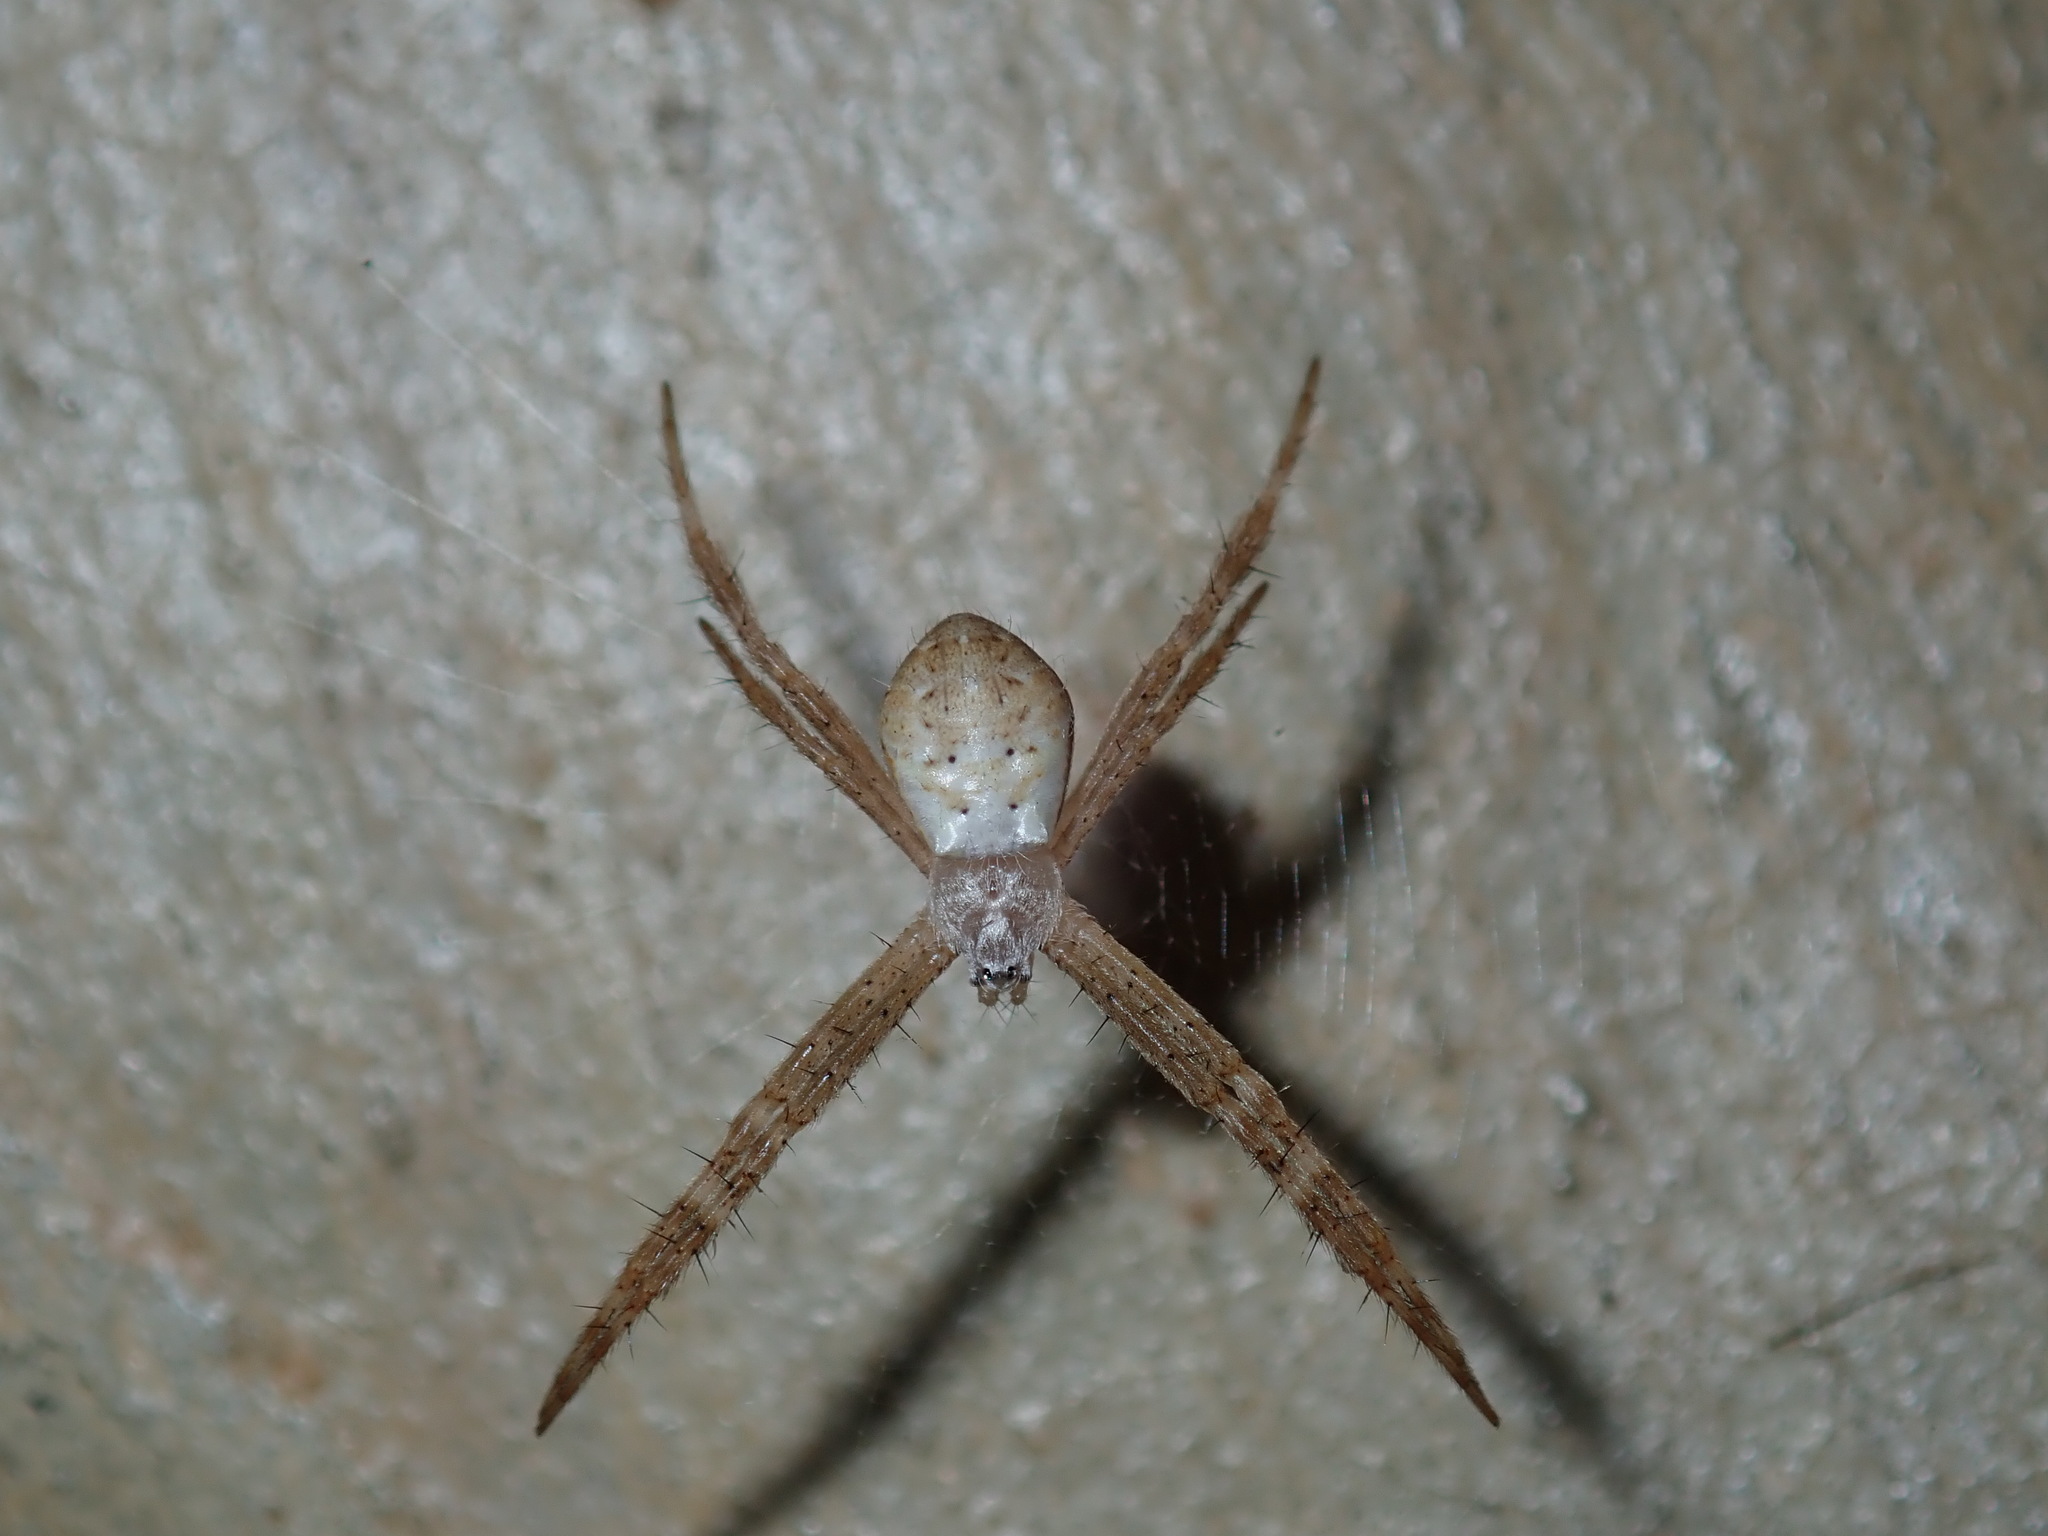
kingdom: Animalia
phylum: Arthropoda
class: Arachnida
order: Araneae
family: Araneidae
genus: Argiope
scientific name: Argiope keyserlingi
